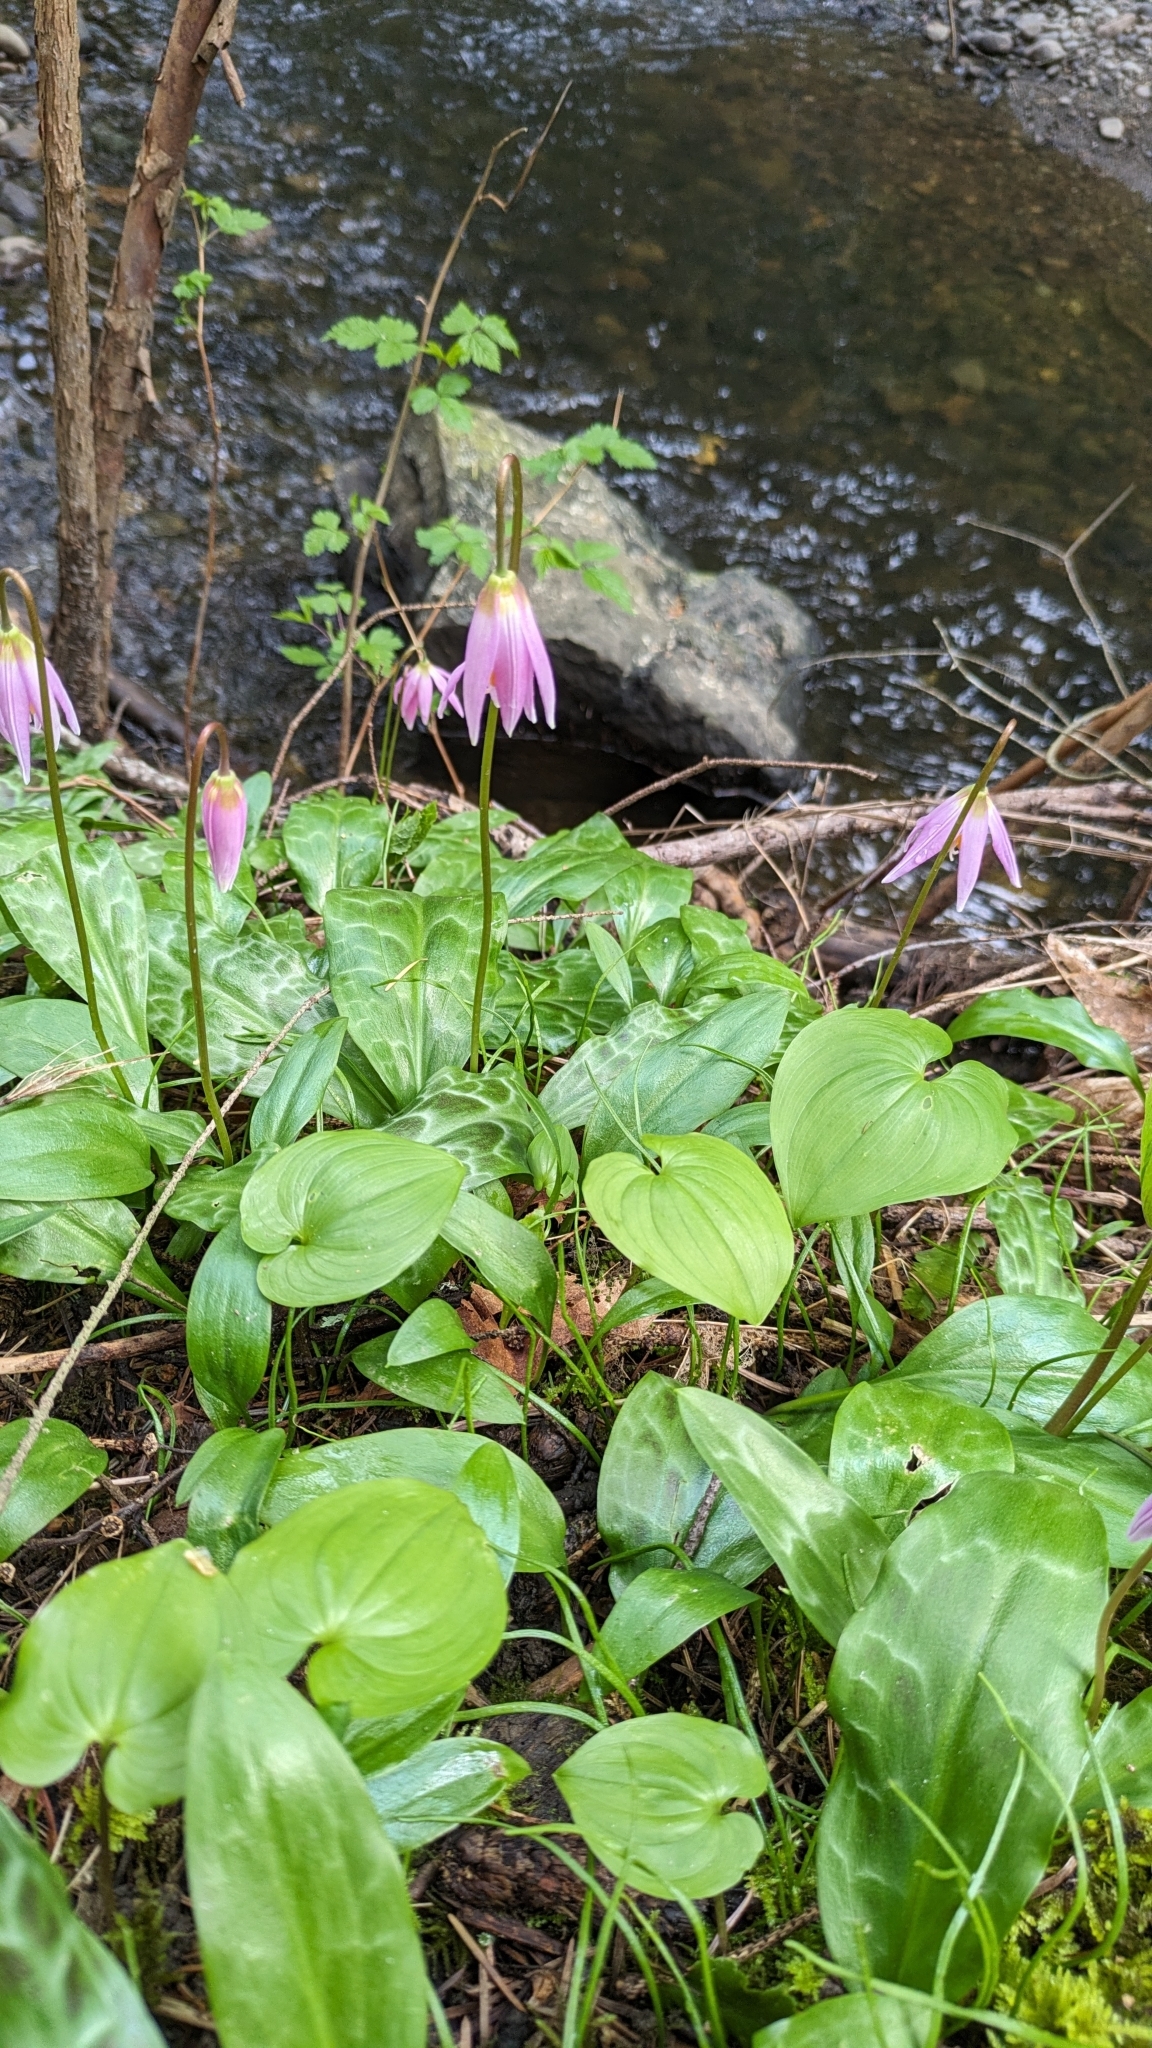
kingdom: Plantae
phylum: Tracheophyta
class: Liliopsida
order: Liliales
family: Liliaceae
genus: Erythronium
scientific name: Erythronium revolutum
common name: Pink fawn-lily
